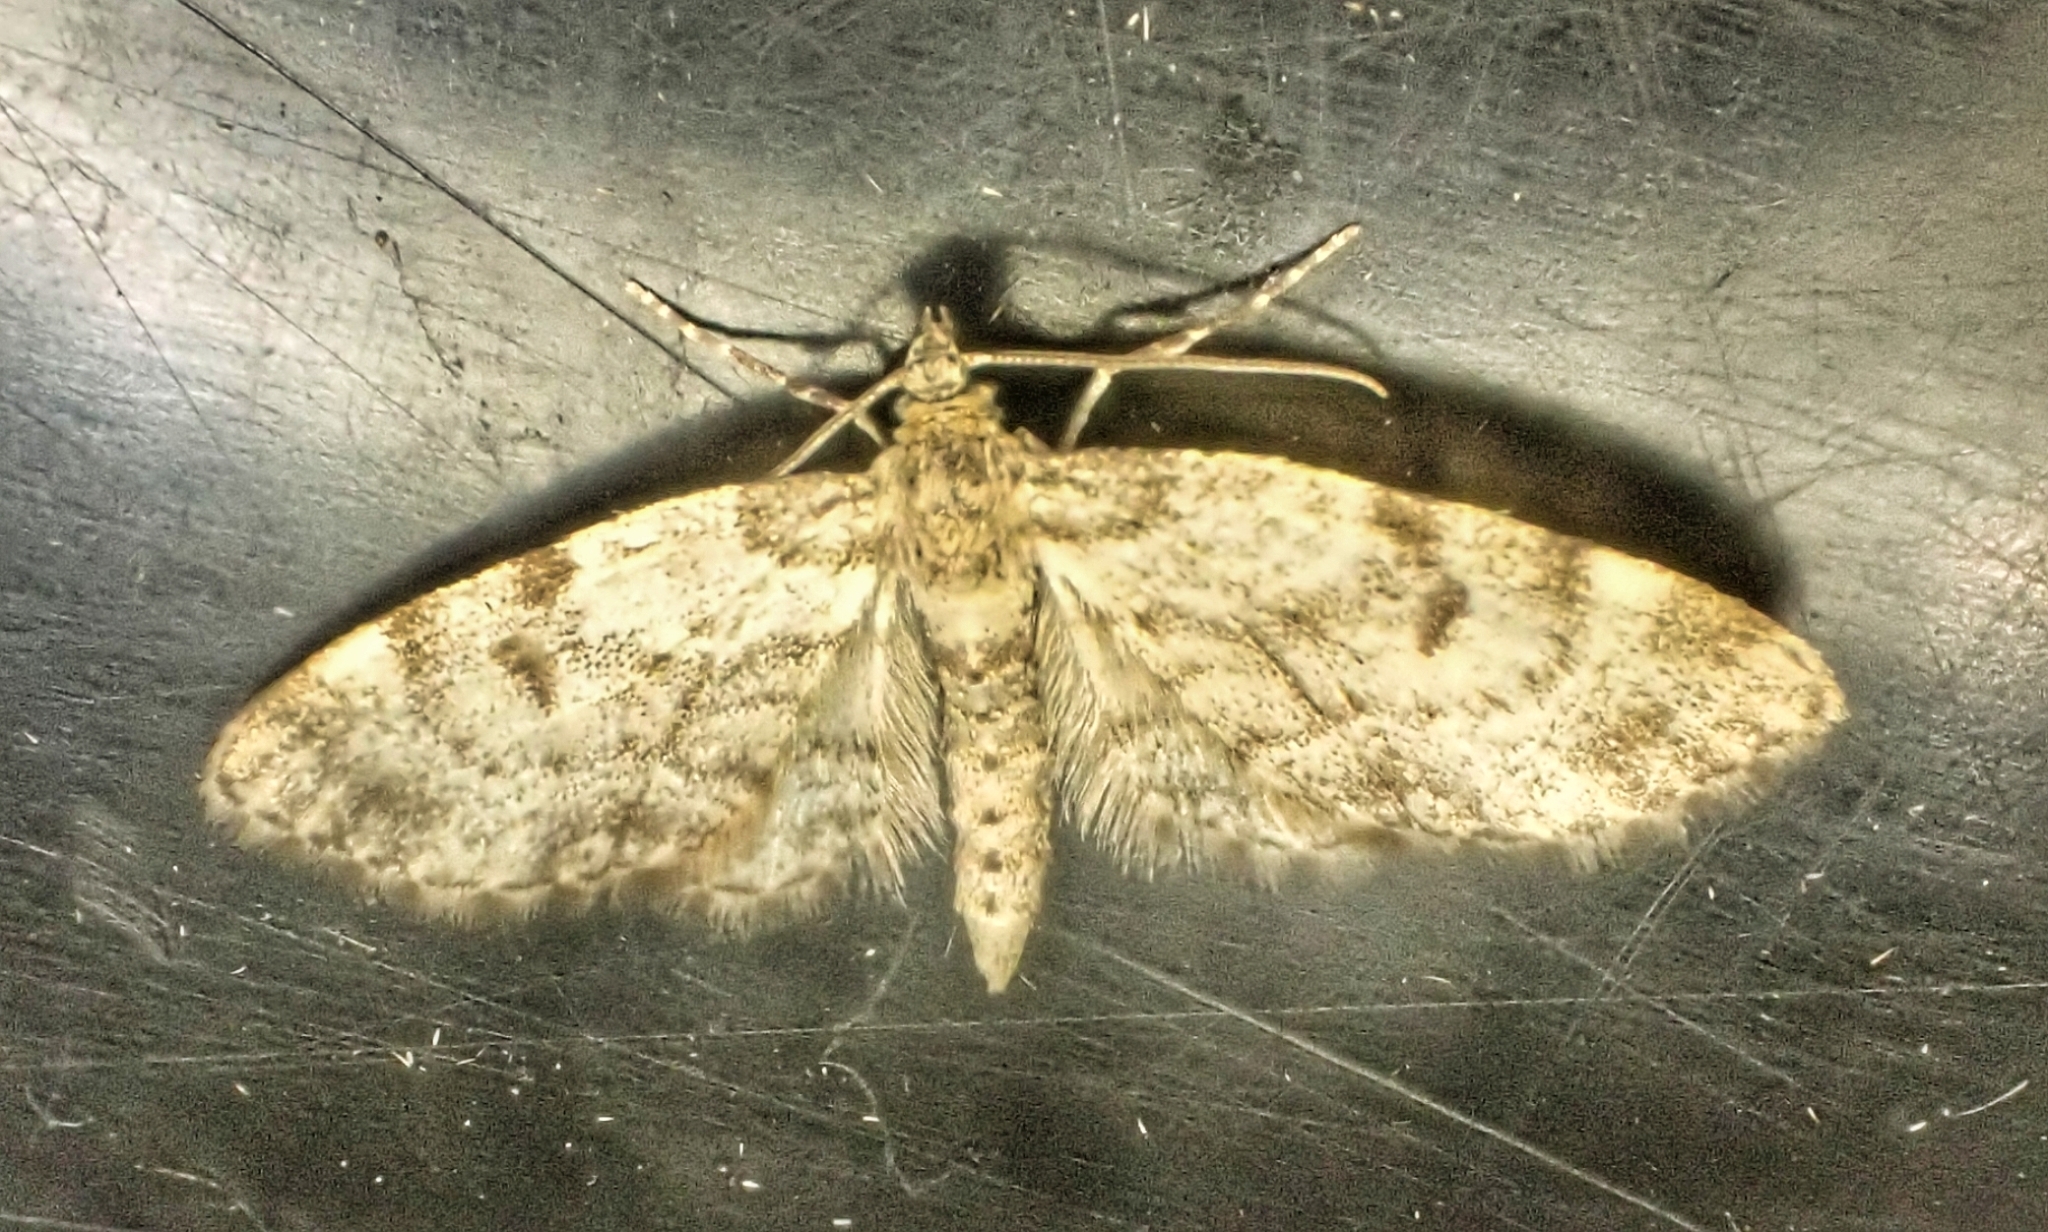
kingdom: Animalia
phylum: Arthropoda
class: Insecta
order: Lepidoptera
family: Geometridae
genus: Eupithecia
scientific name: Eupithecia tantillaria
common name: Dwarf pug
